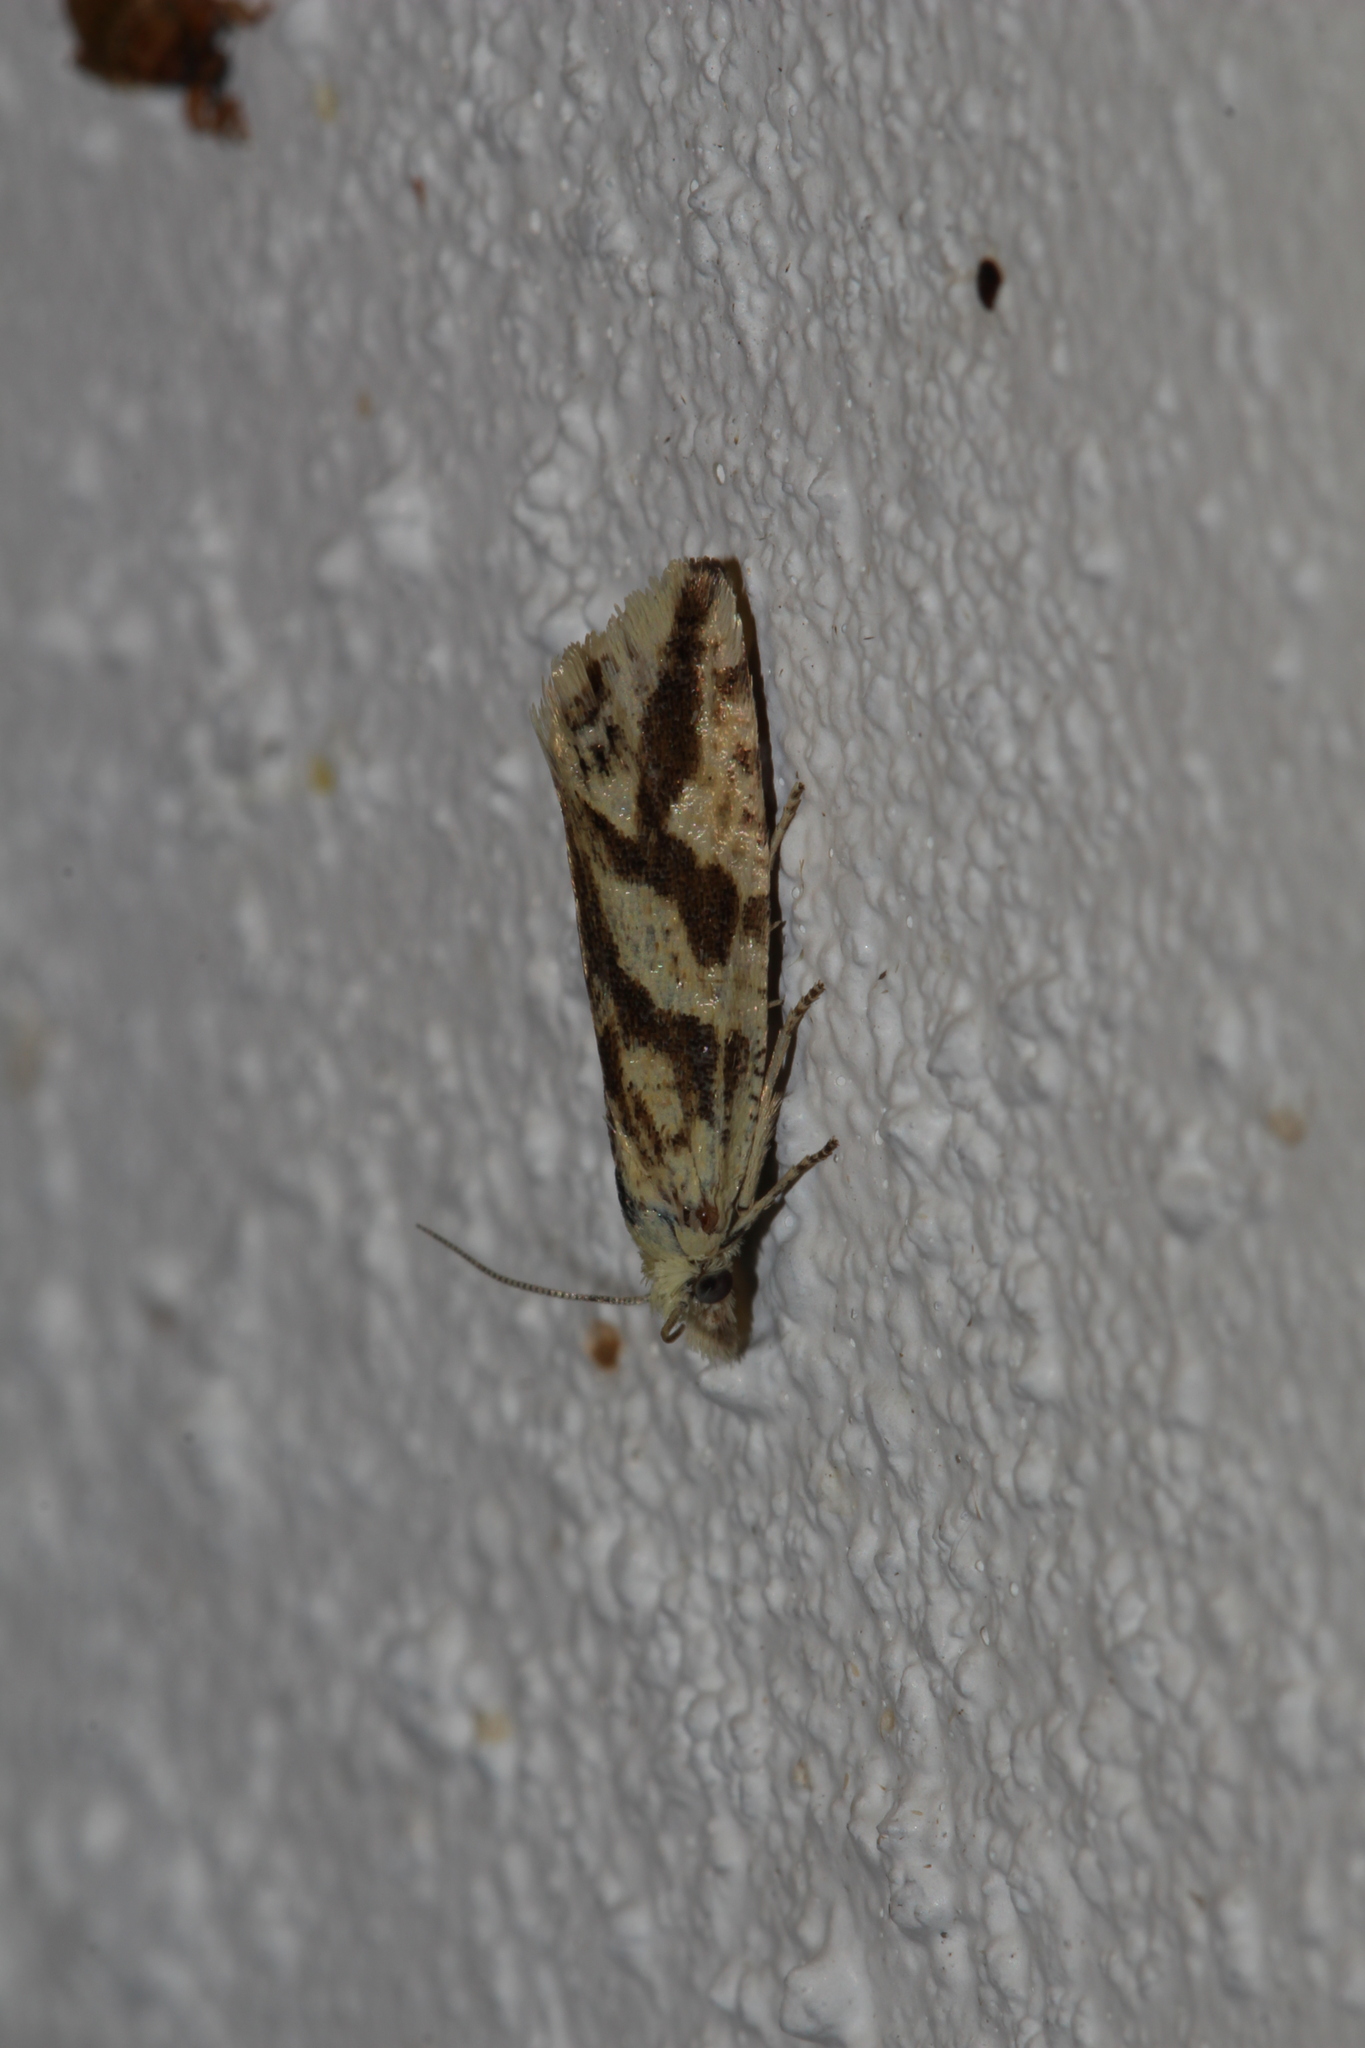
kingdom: Animalia
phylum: Arthropoda
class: Insecta
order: Lepidoptera
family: Tortricidae
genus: Thiodia
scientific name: Thiodia citrana
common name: Lemon bell
